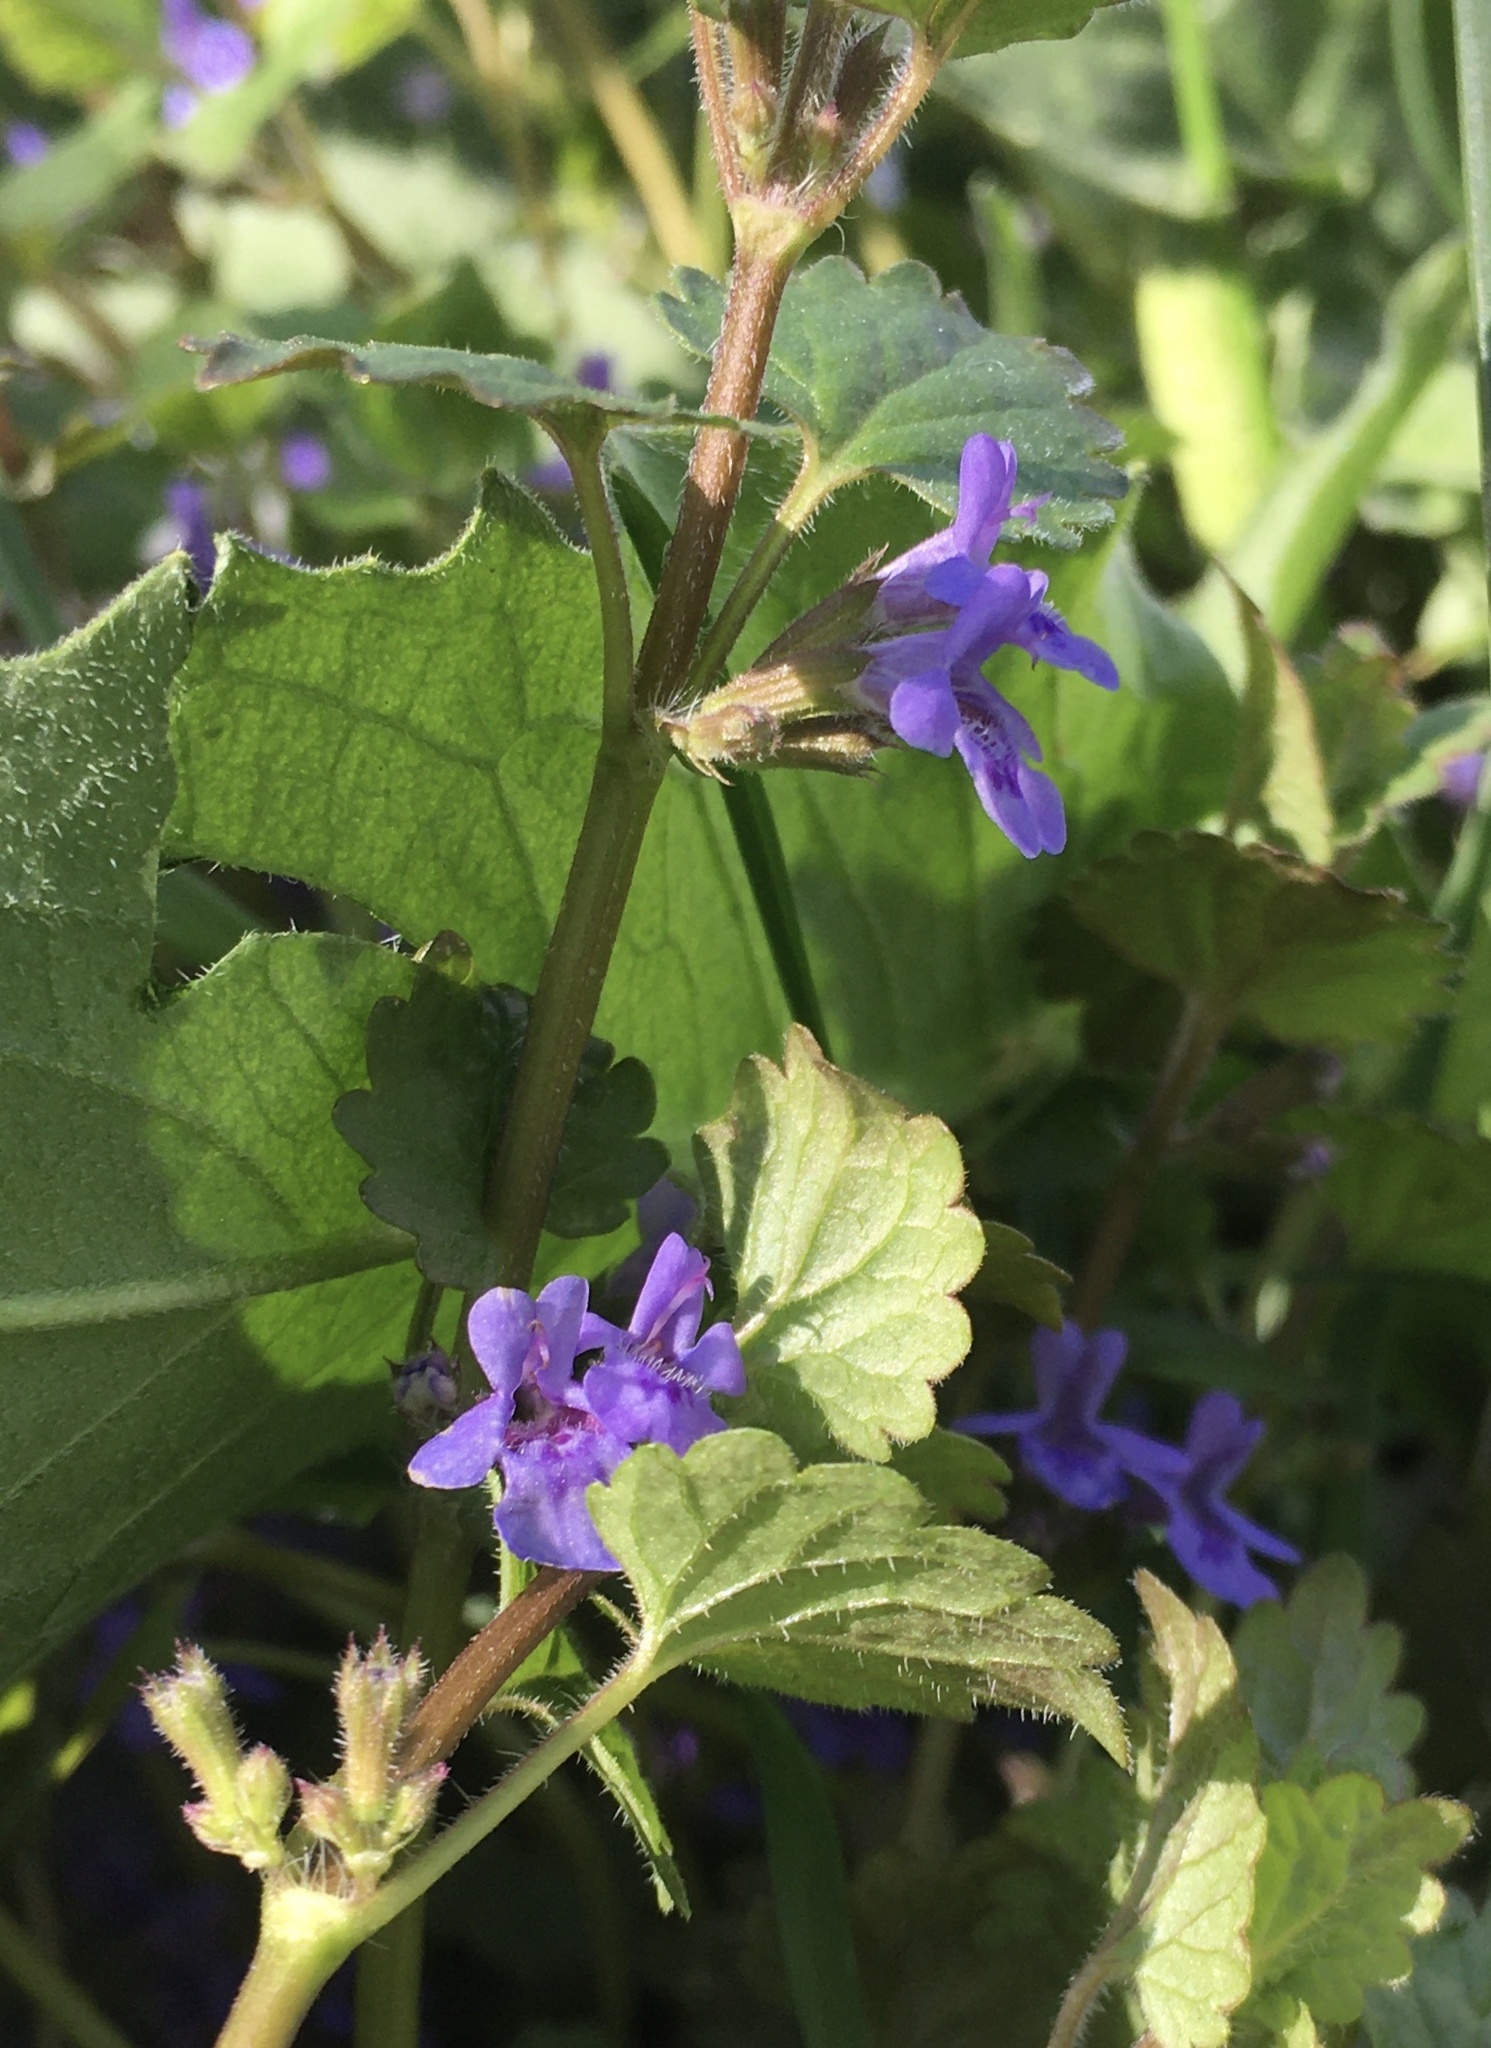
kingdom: Plantae
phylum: Tracheophyta
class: Magnoliopsida
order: Lamiales
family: Lamiaceae
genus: Glechoma
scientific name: Glechoma hederacea
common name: Ground ivy
